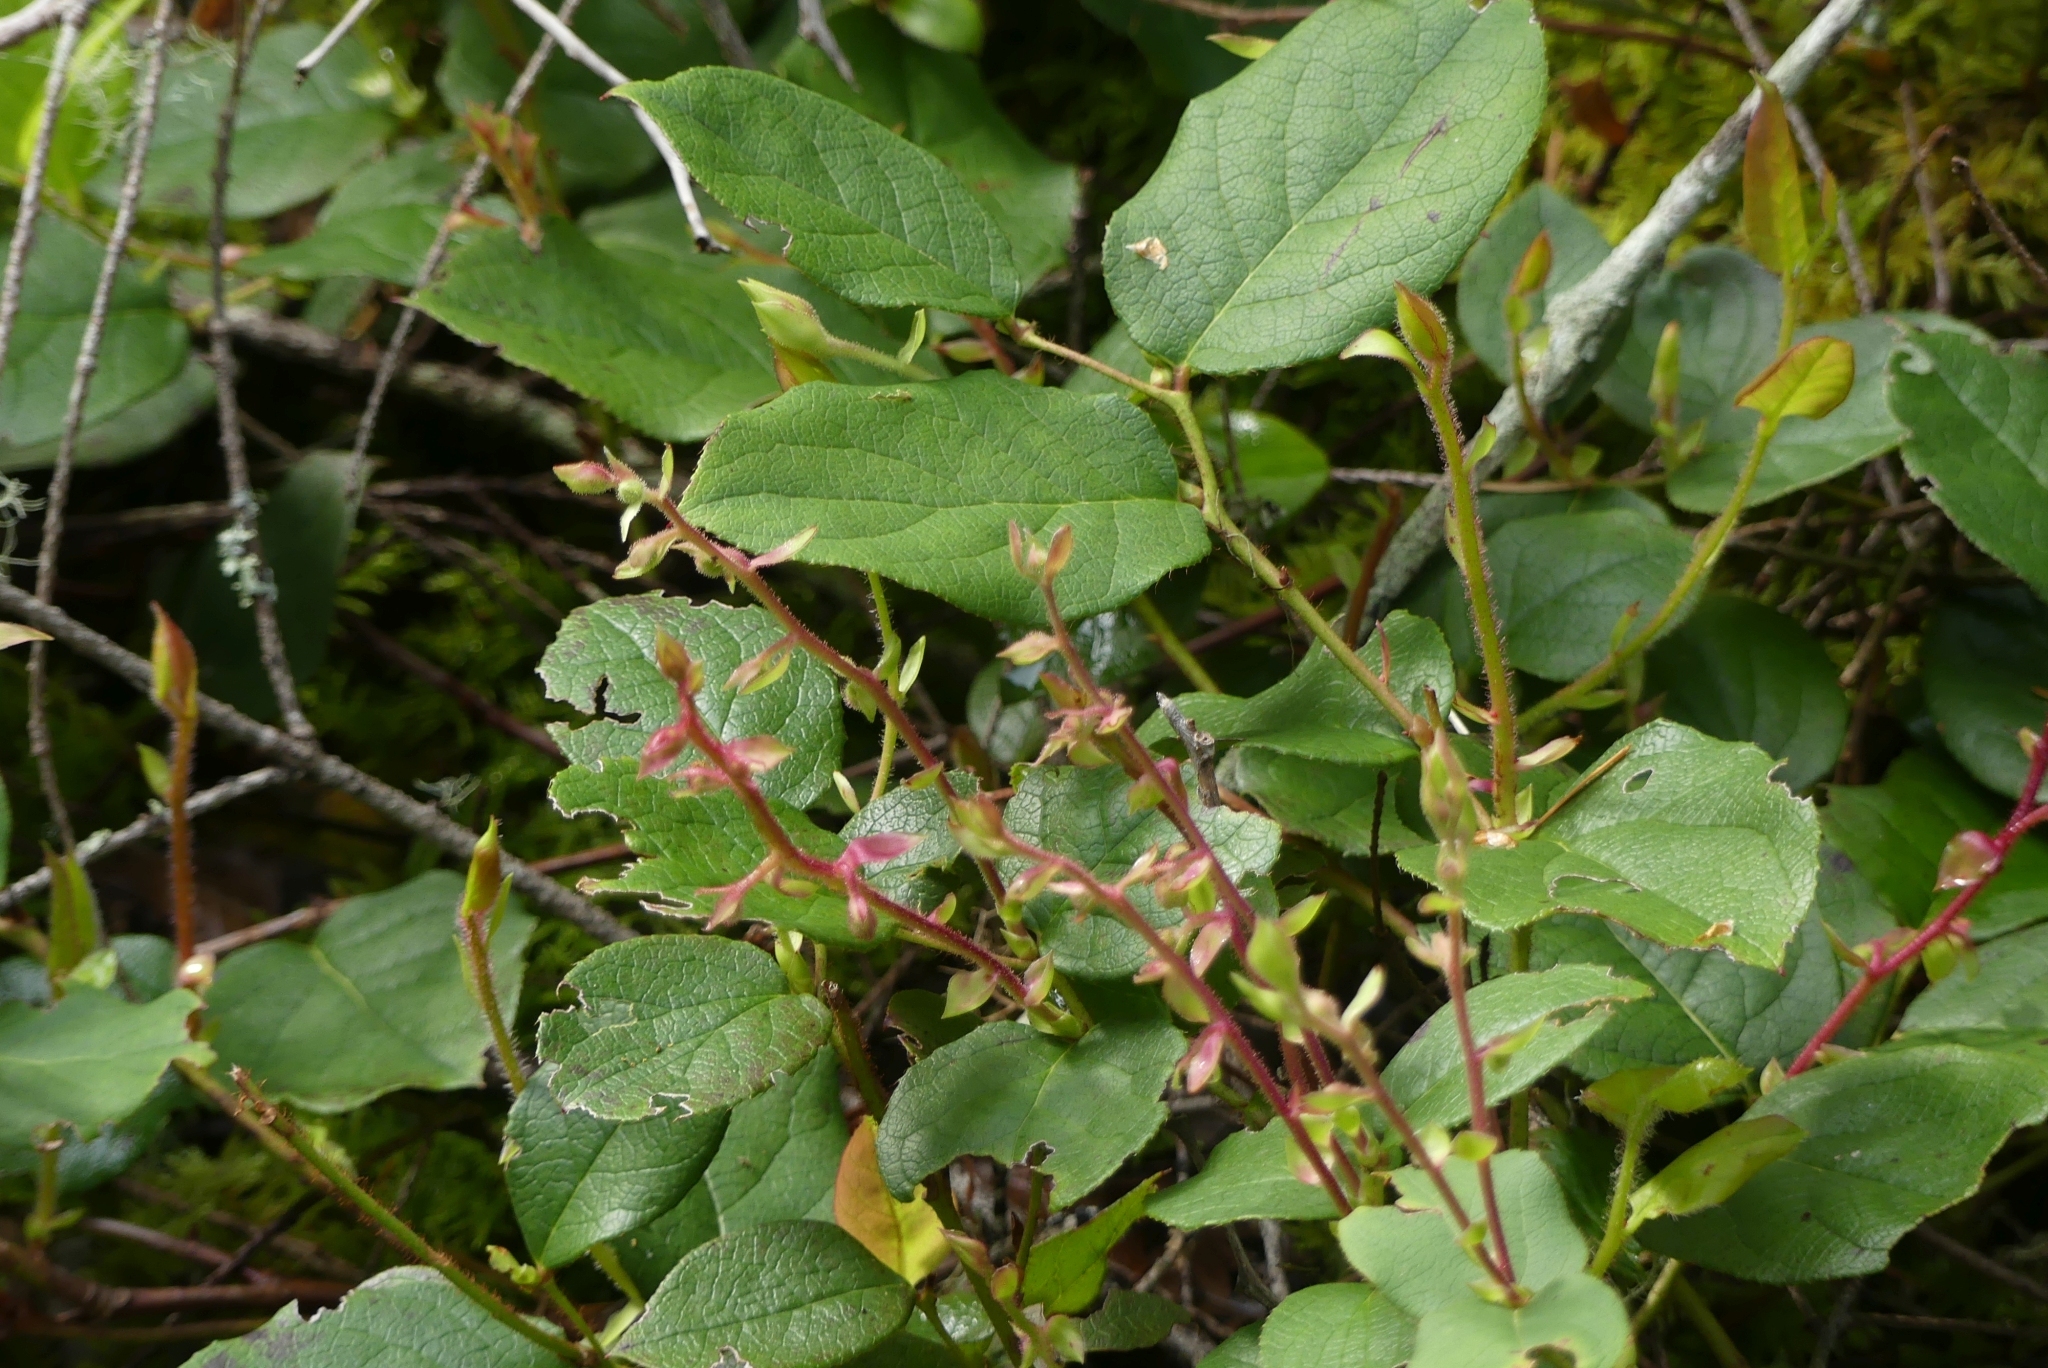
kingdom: Plantae
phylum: Tracheophyta
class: Magnoliopsida
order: Ericales
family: Ericaceae
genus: Gaultheria
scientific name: Gaultheria shallon
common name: Shallon
